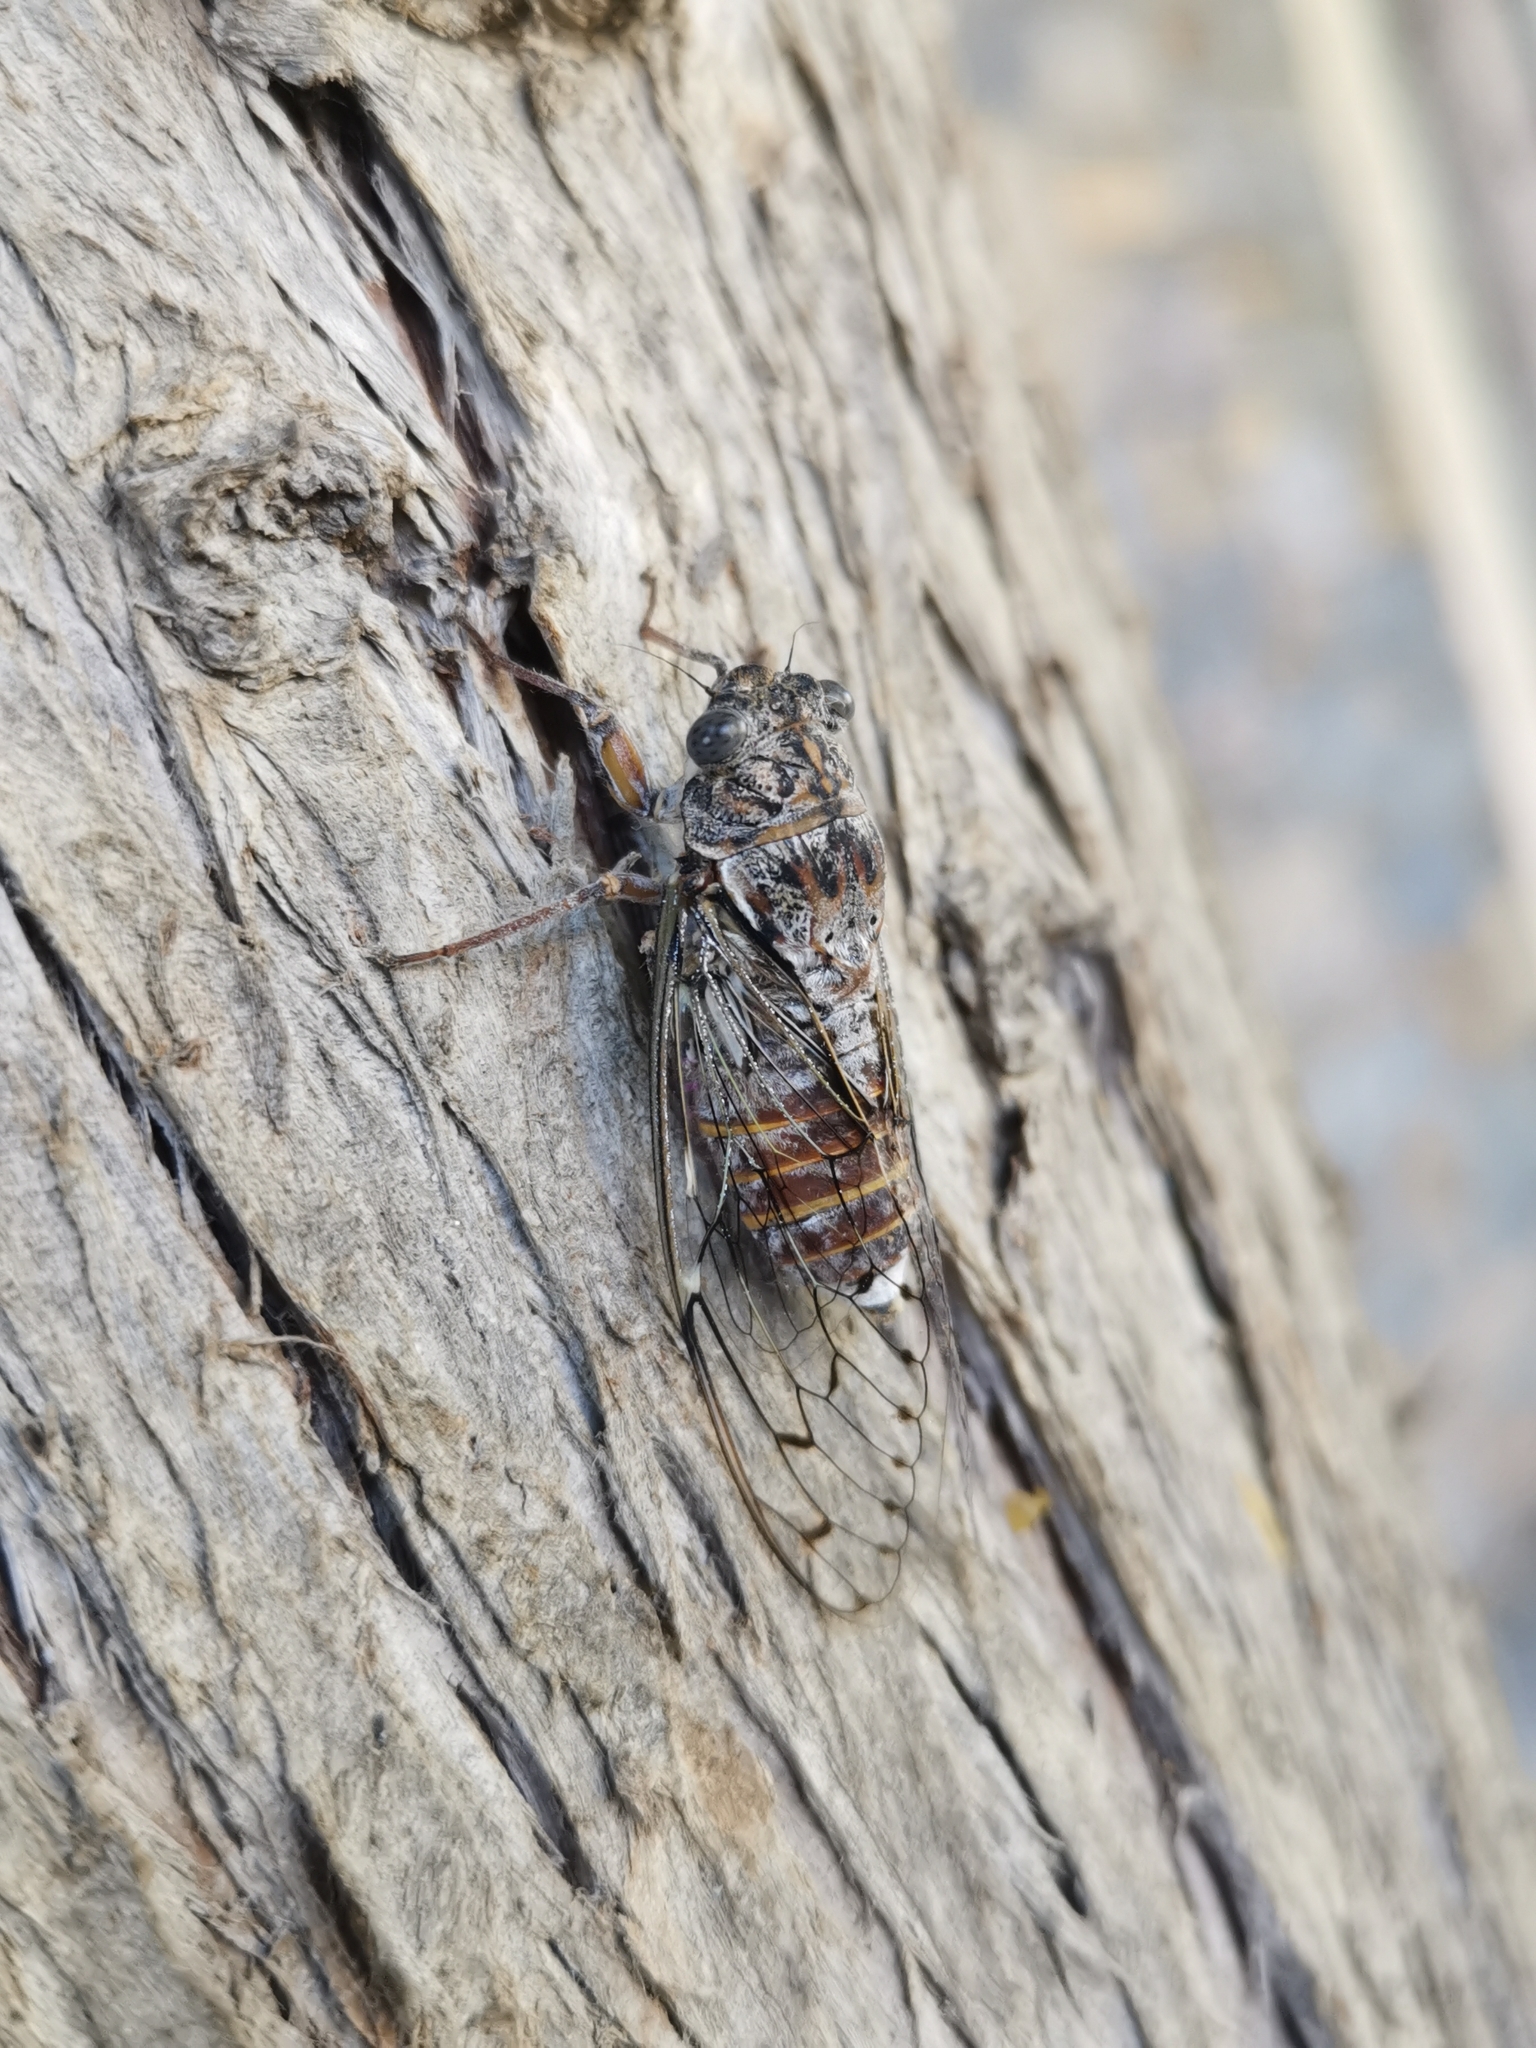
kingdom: Animalia
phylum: Arthropoda
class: Insecta
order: Hemiptera
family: Cicadidae
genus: Cicada
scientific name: Cicada orni
